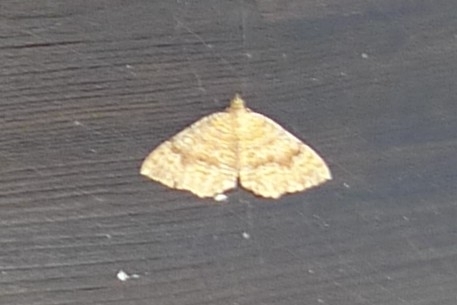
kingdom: Animalia
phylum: Arthropoda
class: Insecta
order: Lepidoptera
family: Geometridae
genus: Camptogramma
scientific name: Camptogramma bilineata
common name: Yellow shell
